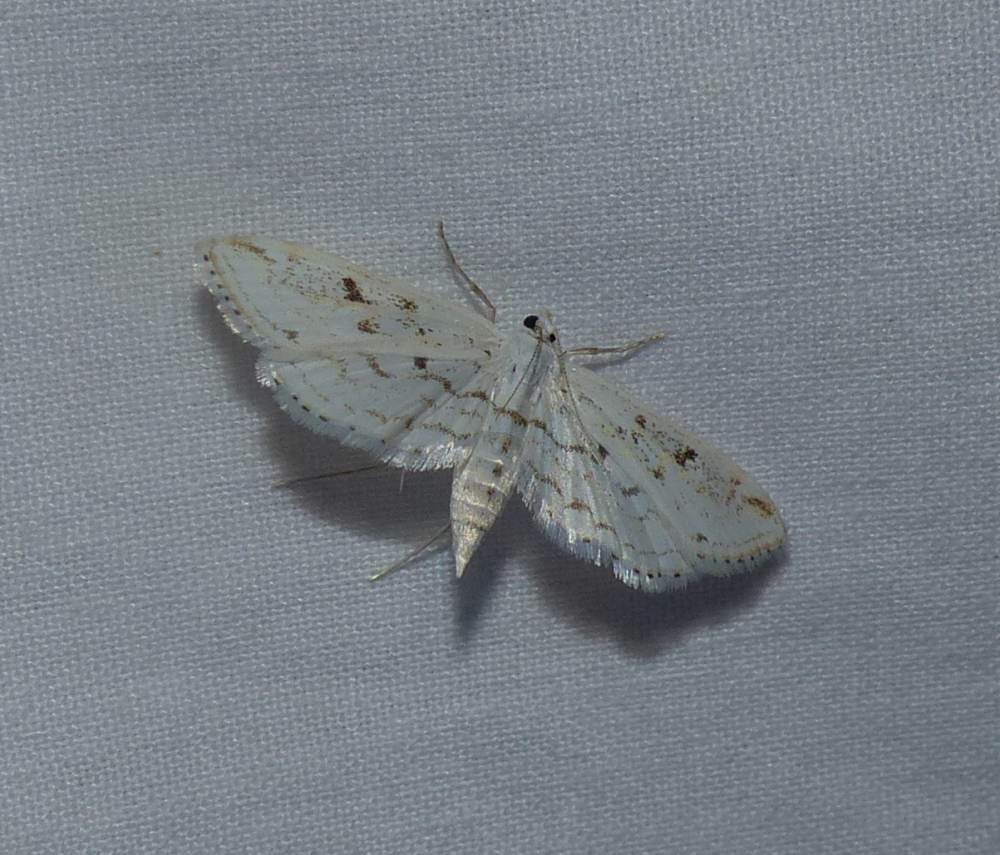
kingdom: Animalia
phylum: Arthropoda
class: Insecta
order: Lepidoptera
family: Crambidae
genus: Parapoynx
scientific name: Parapoynx allionealis
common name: Bladderwort casemaker
